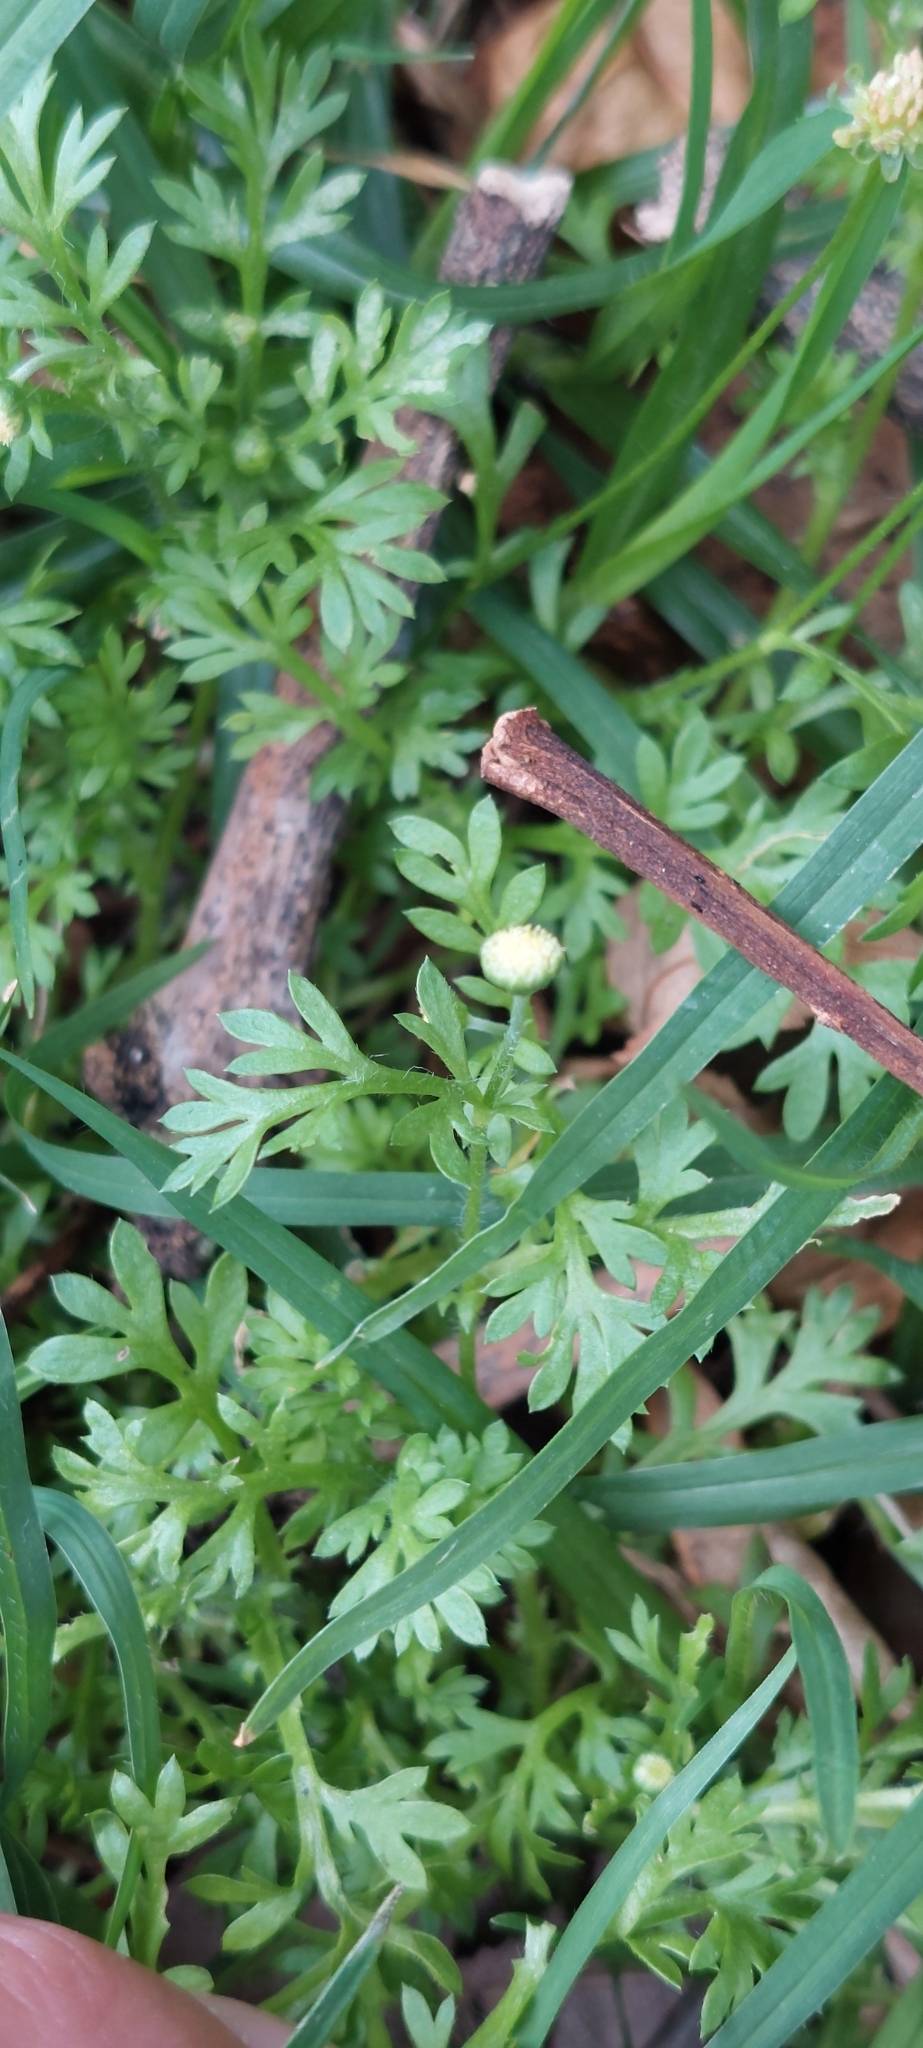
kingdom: Plantae
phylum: Tracheophyta
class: Magnoliopsida
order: Asterales
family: Asteraceae
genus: Cotula
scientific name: Cotula australis
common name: Australian waterbuttons
